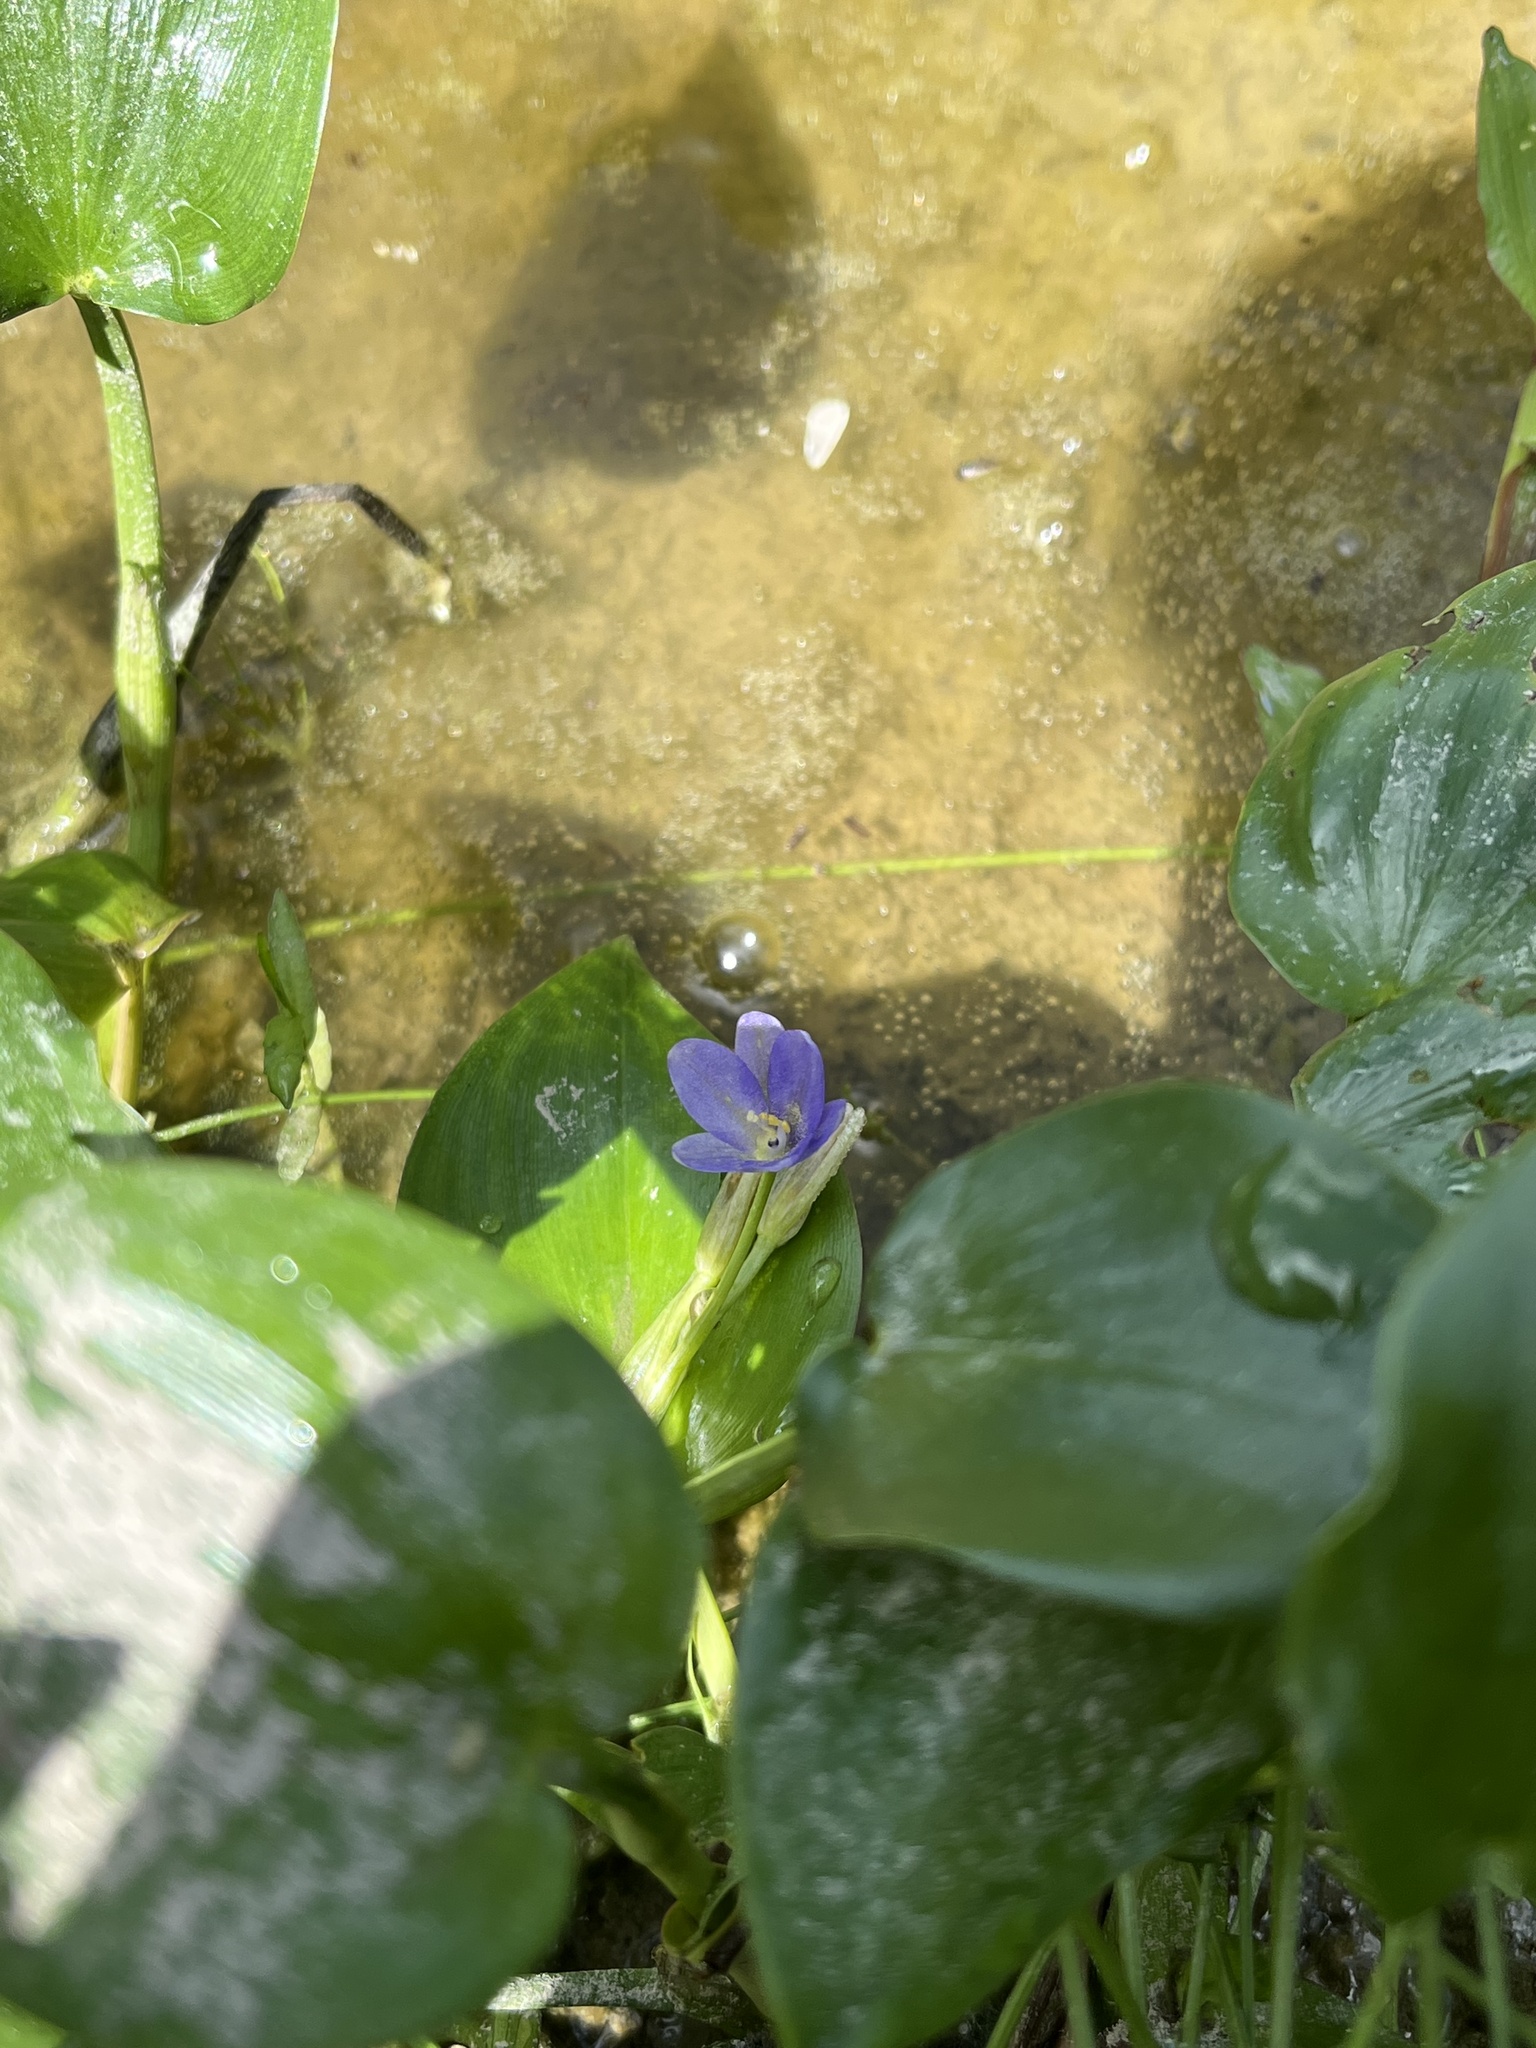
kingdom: Plantae
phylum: Tracheophyta
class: Liliopsida
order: Commelinales
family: Pontederiaceae
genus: Pontederia
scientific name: Pontederia vaginalis
